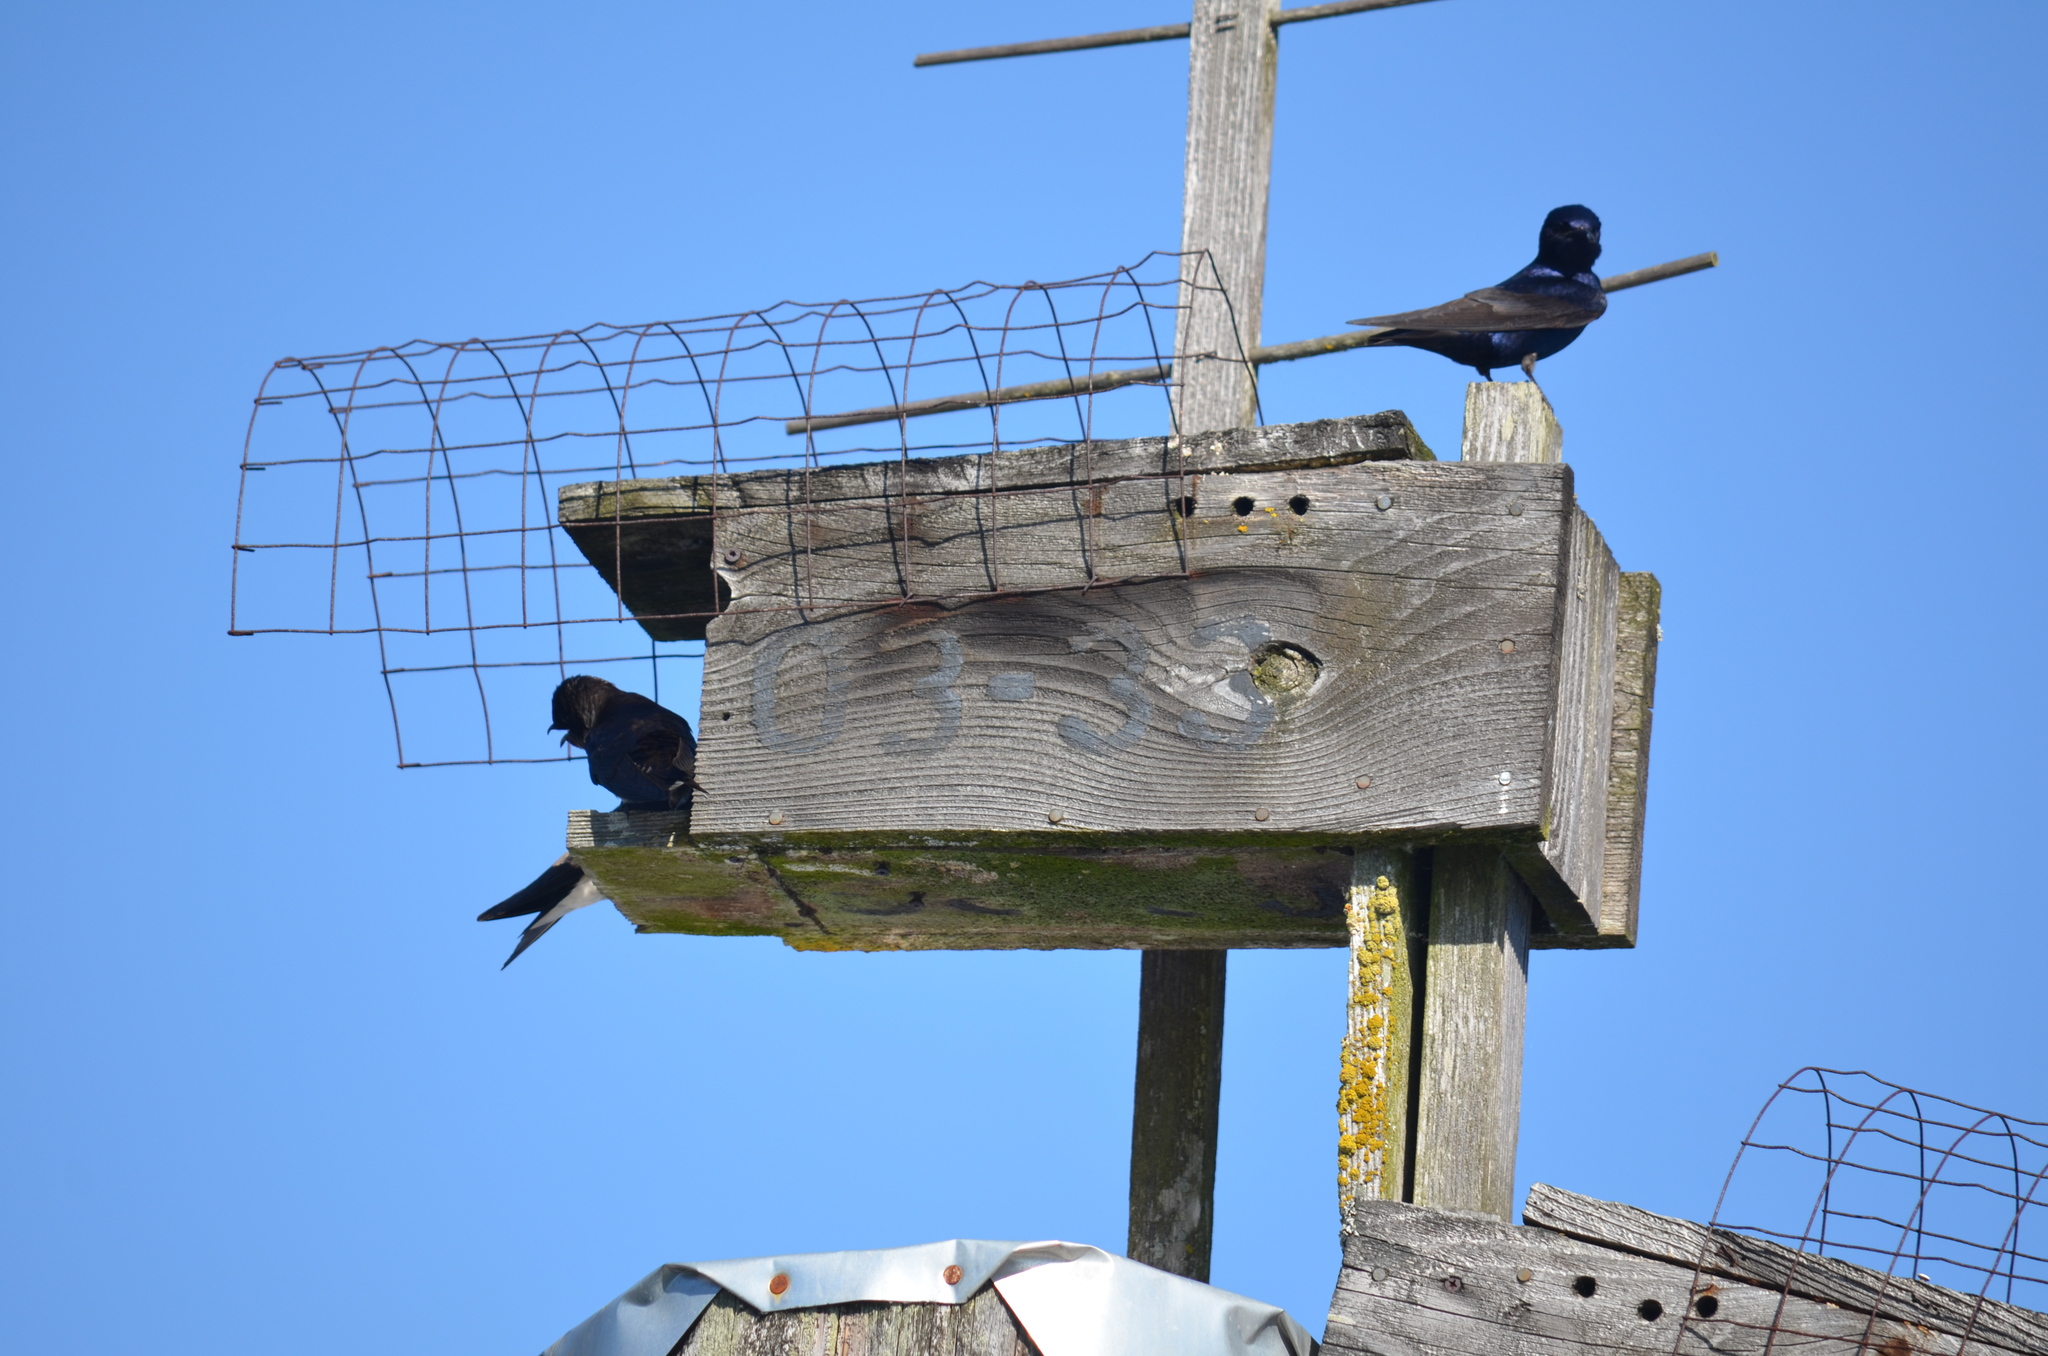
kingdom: Animalia
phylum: Chordata
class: Aves
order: Passeriformes
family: Hirundinidae
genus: Progne
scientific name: Progne subis
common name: Purple martin
